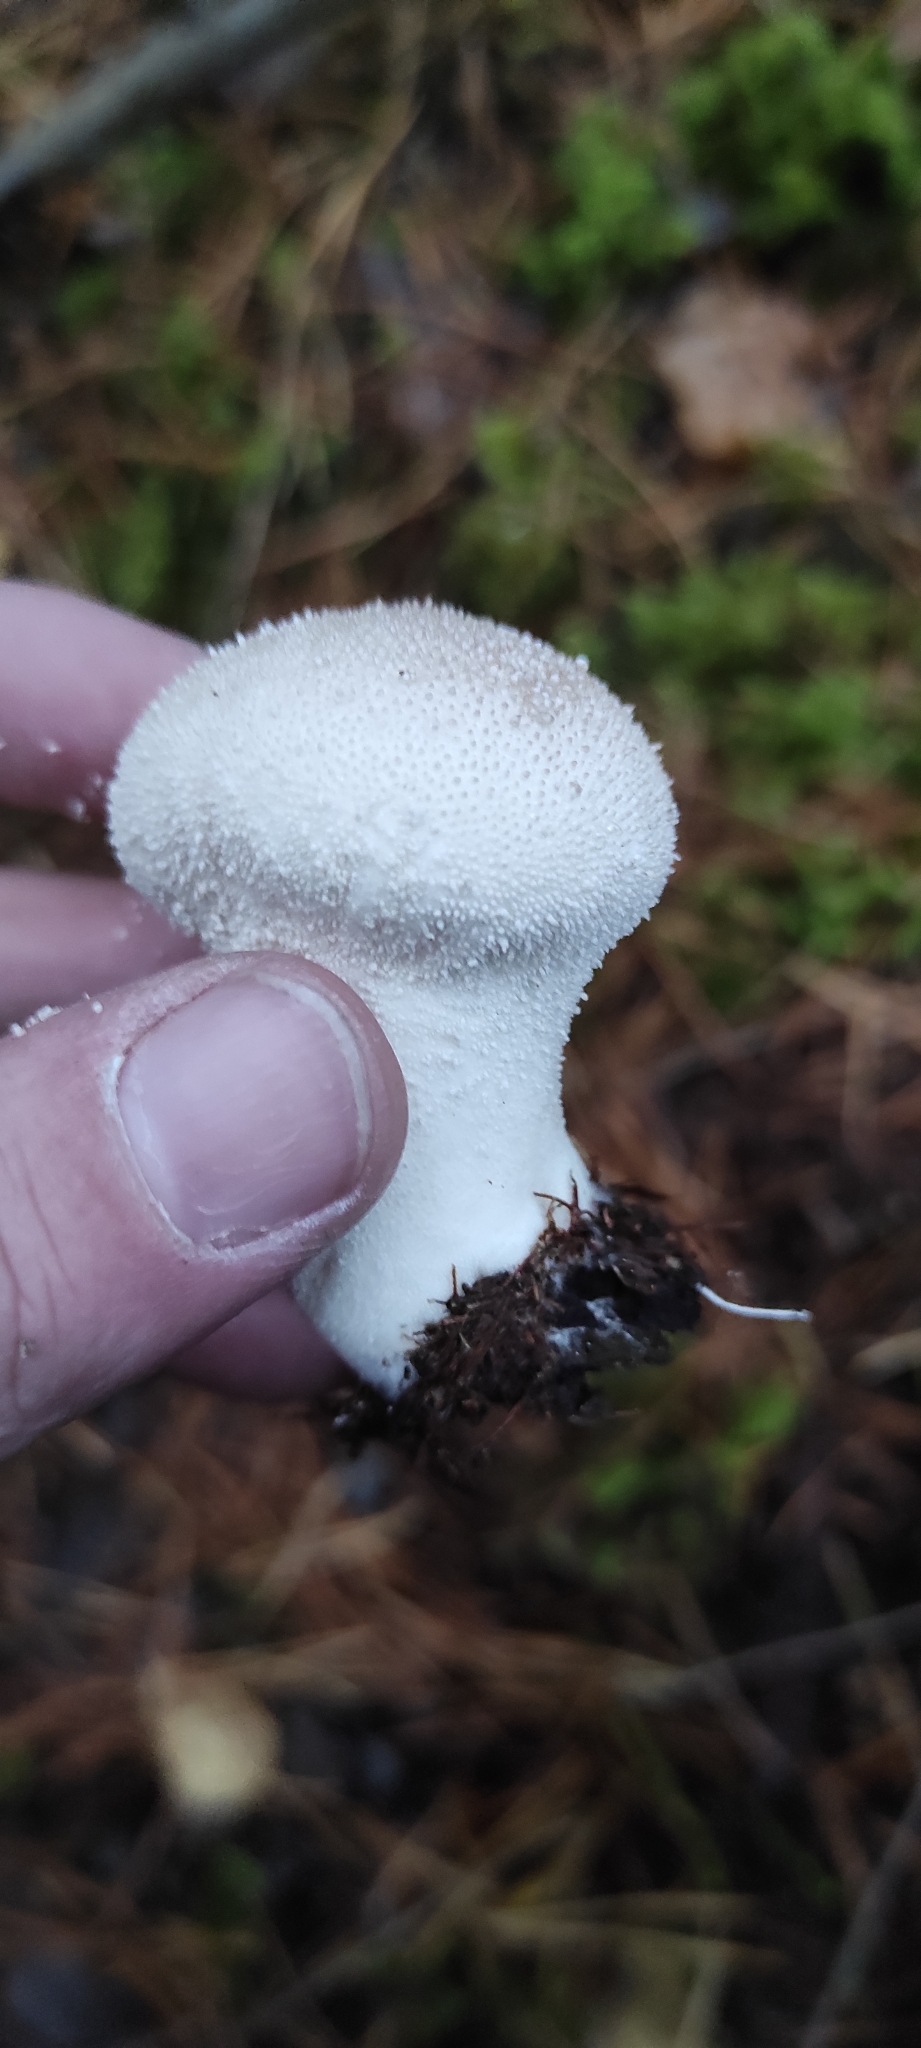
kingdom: Fungi
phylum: Basidiomycota
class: Agaricomycetes
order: Agaricales
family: Lycoperdaceae
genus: Lycoperdon
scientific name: Lycoperdon perlatum
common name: Common puffball
